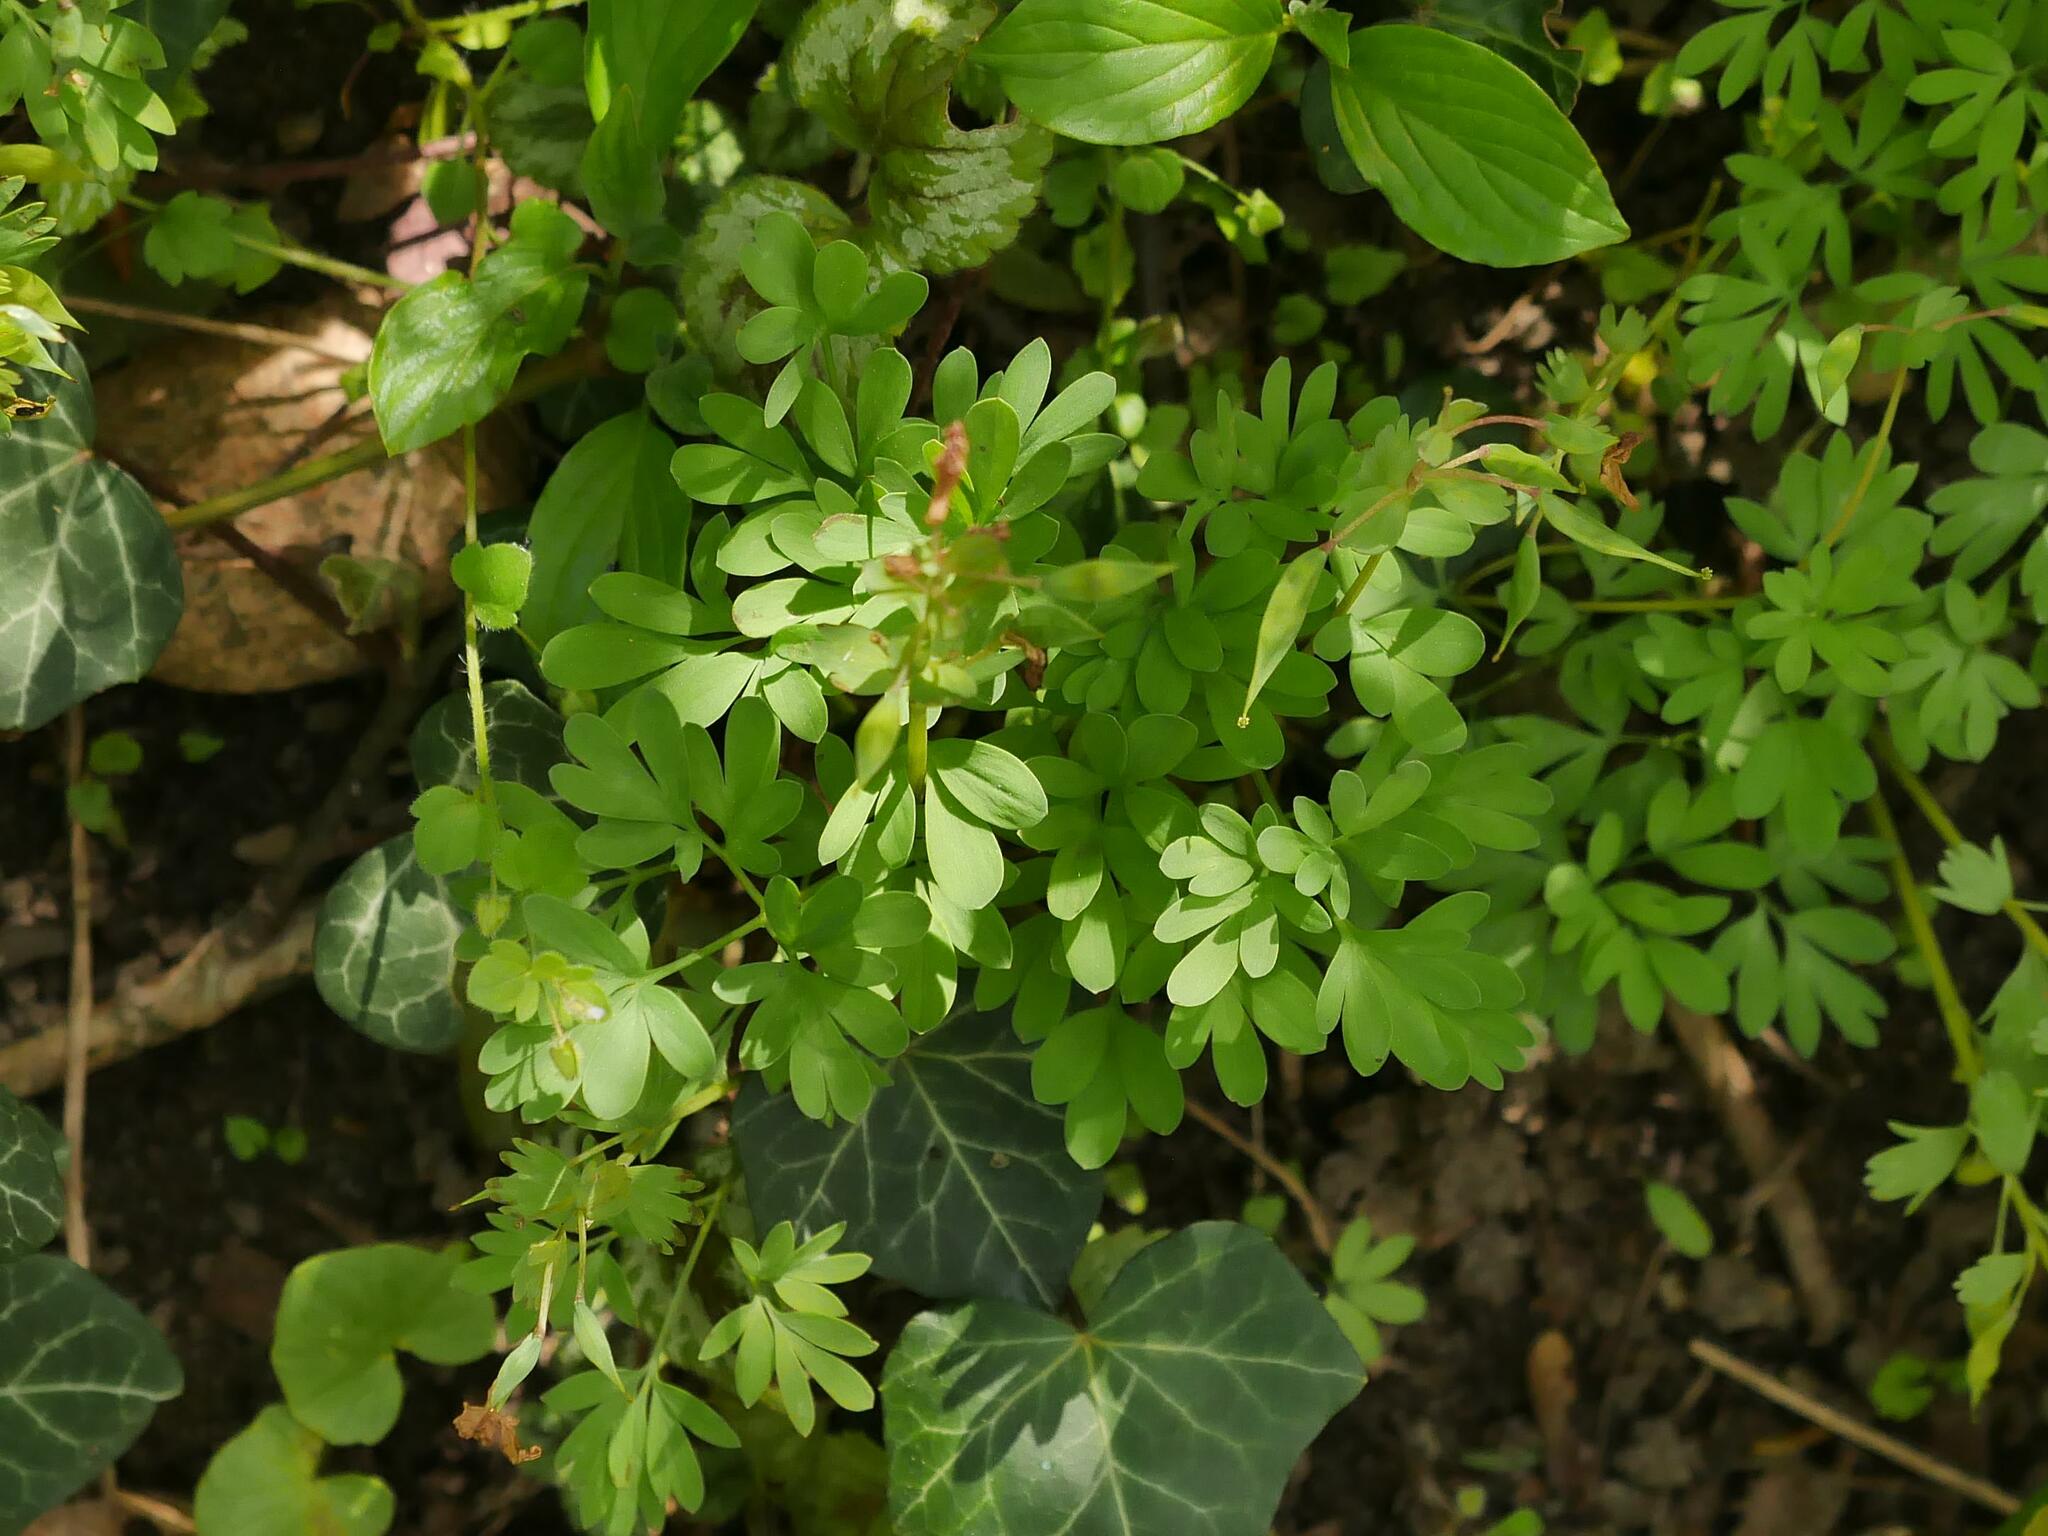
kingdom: Plantae
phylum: Tracheophyta
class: Magnoliopsida
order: Ranunculales
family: Papaveraceae
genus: Corydalis
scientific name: Corydalis solida
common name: Bird-in-a-bush
